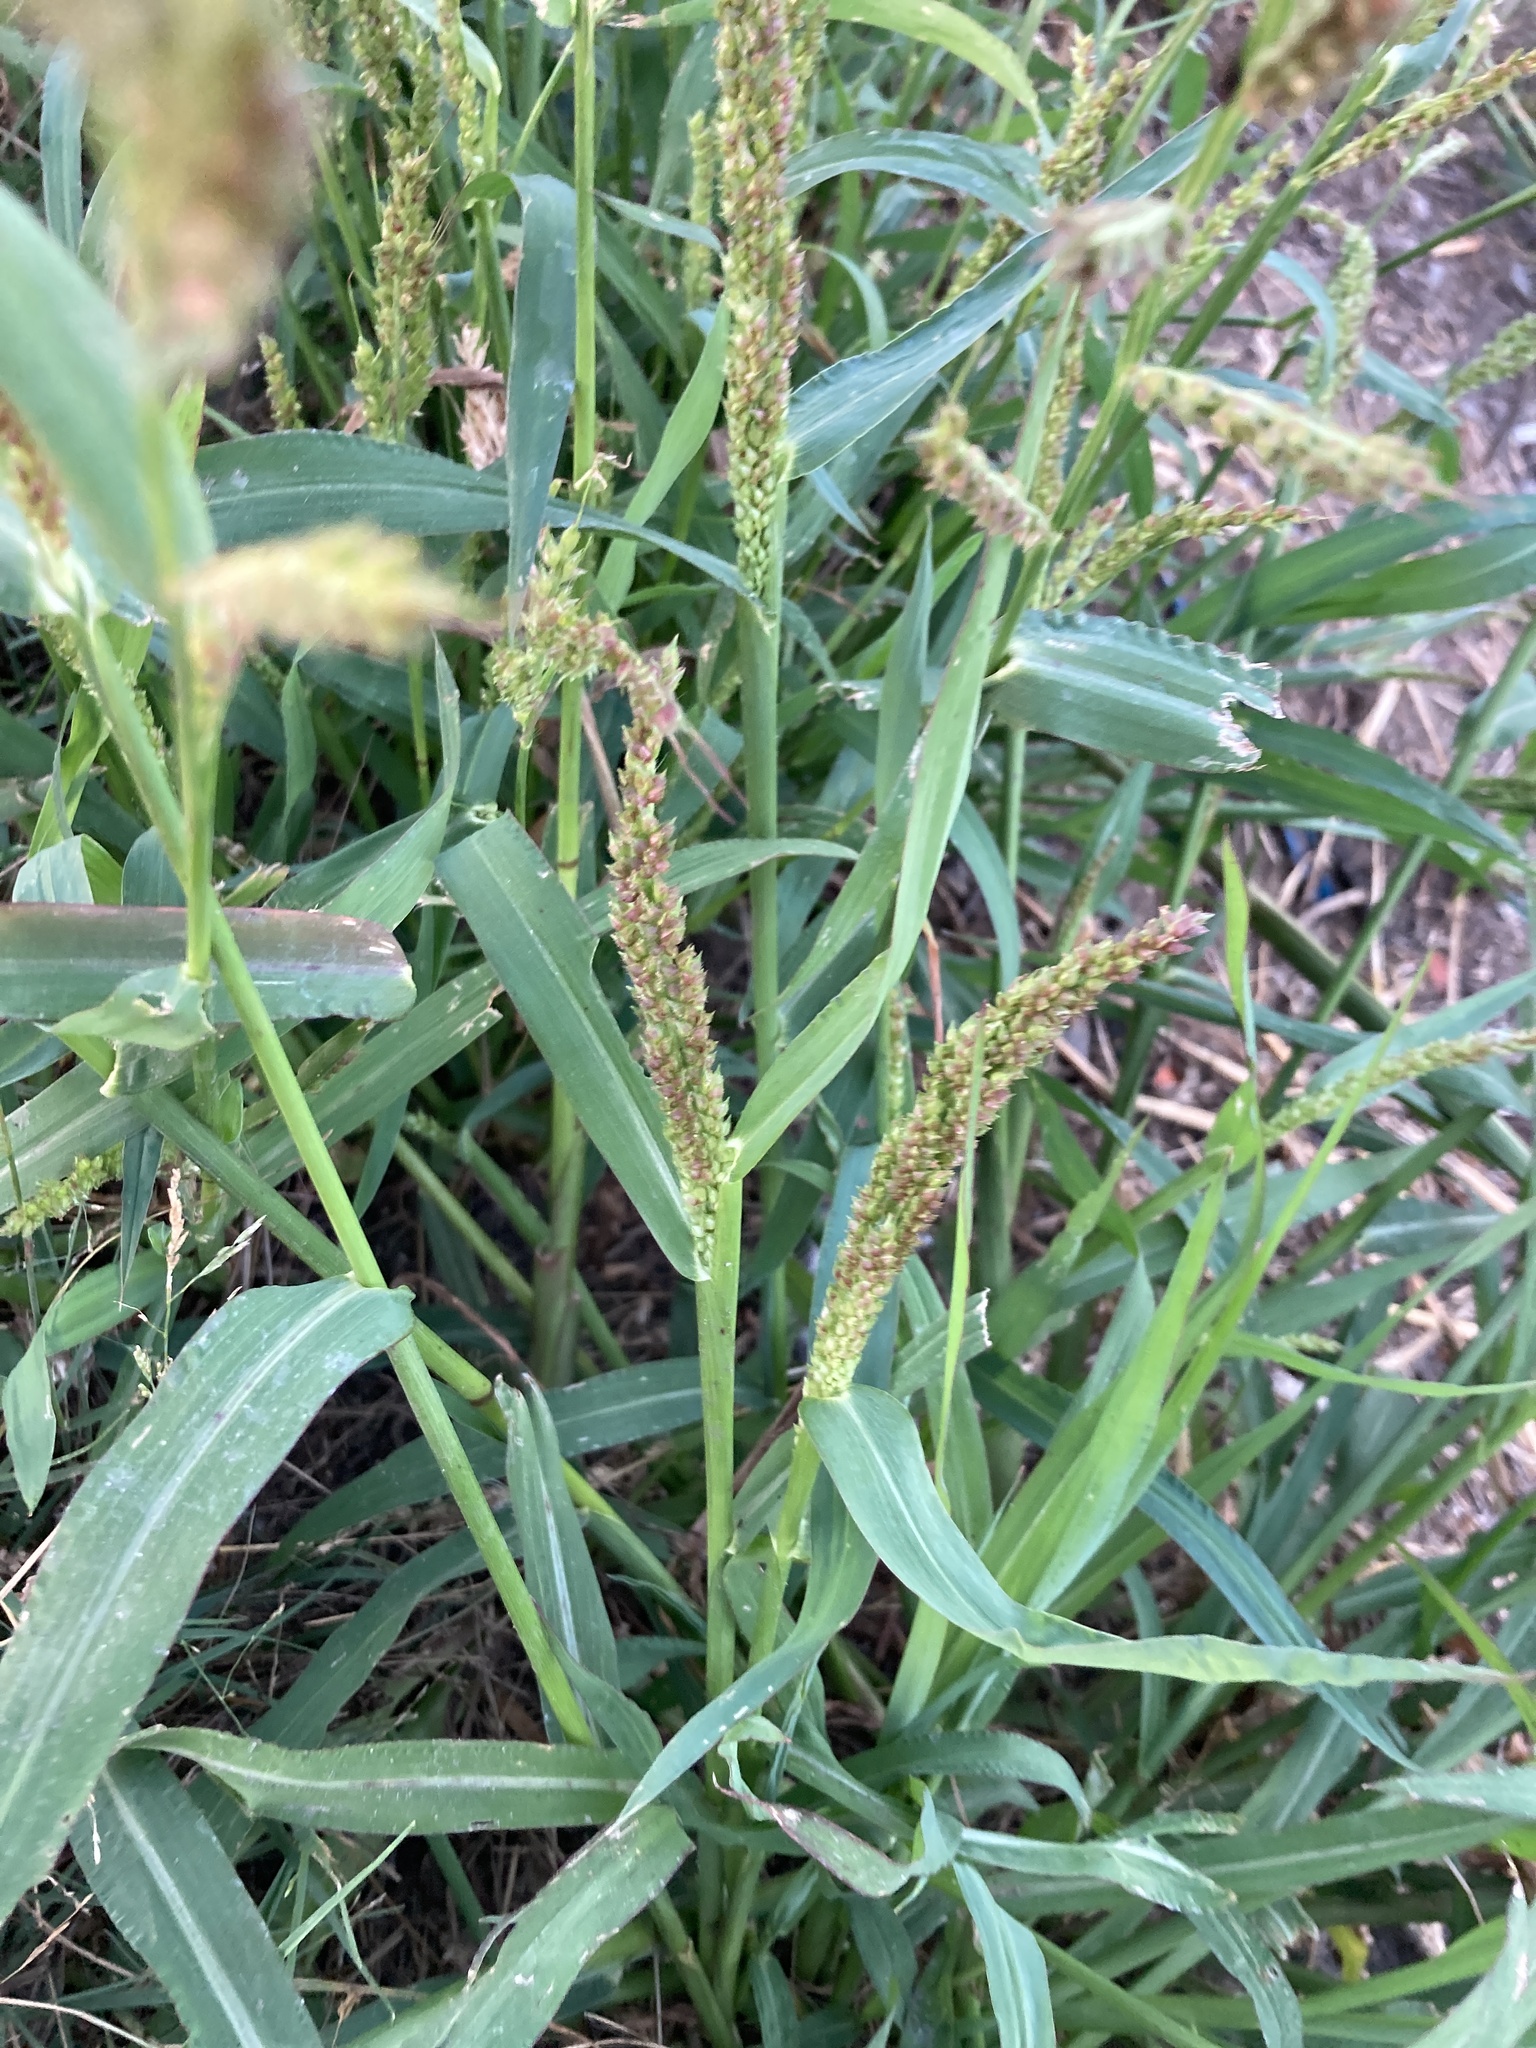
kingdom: Plantae
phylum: Tracheophyta
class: Liliopsida
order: Poales
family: Poaceae
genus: Echinochloa
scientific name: Echinochloa crus-galli
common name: Cockspur
